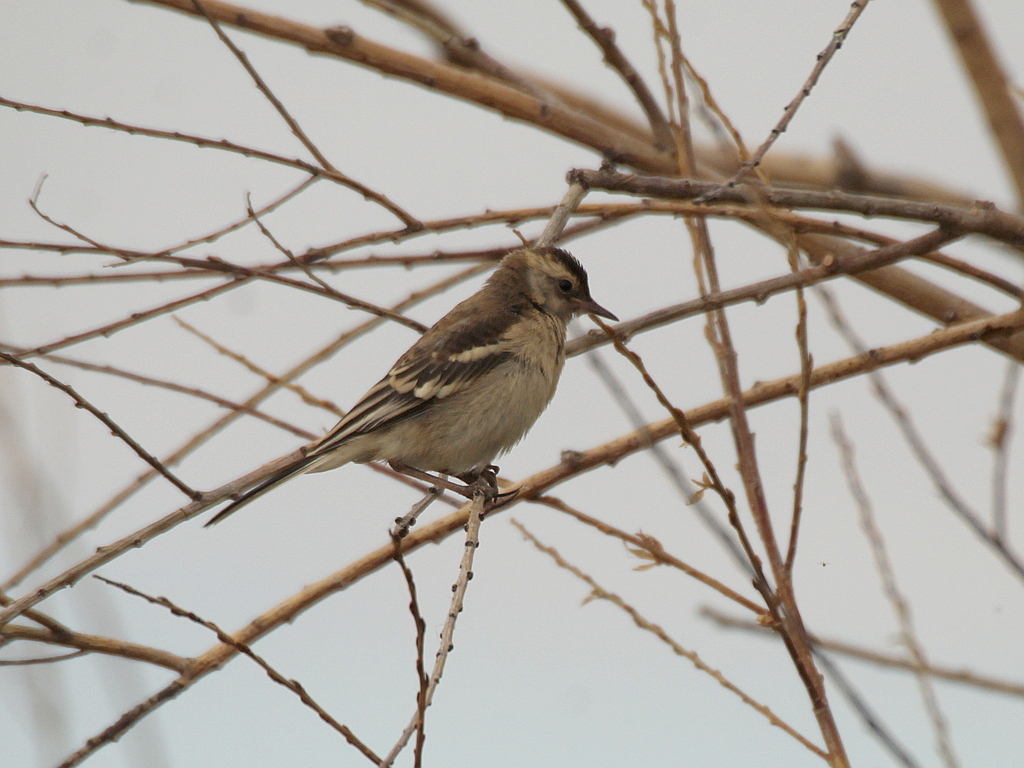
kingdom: Animalia
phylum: Chordata
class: Aves
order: Passeriformes
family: Motacillidae
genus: Motacilla
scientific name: Motacilla citreola
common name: Citrine wagtail
